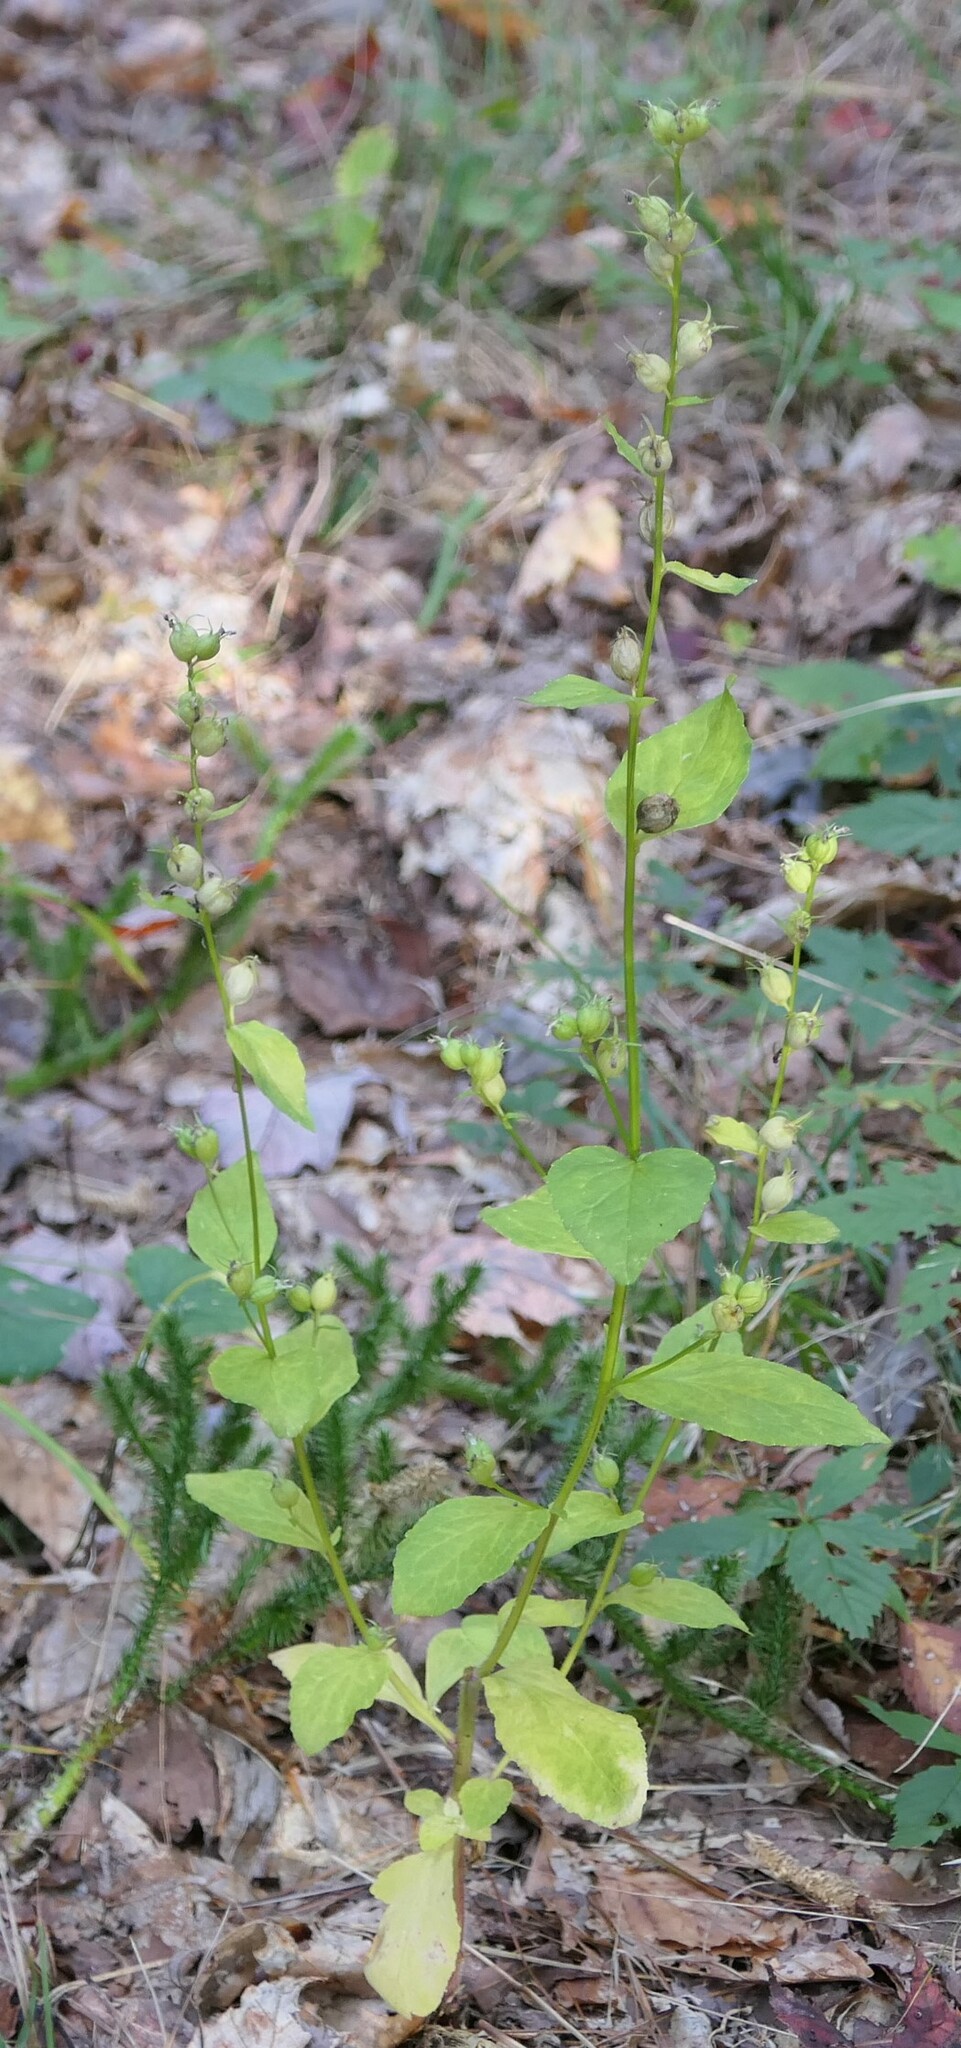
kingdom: Plantae
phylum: Tracheophyta
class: Magnoliopsida
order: Asterales
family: Campanulaceae
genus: Lobelia
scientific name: Lobelia inflata
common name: Indian tobacco
